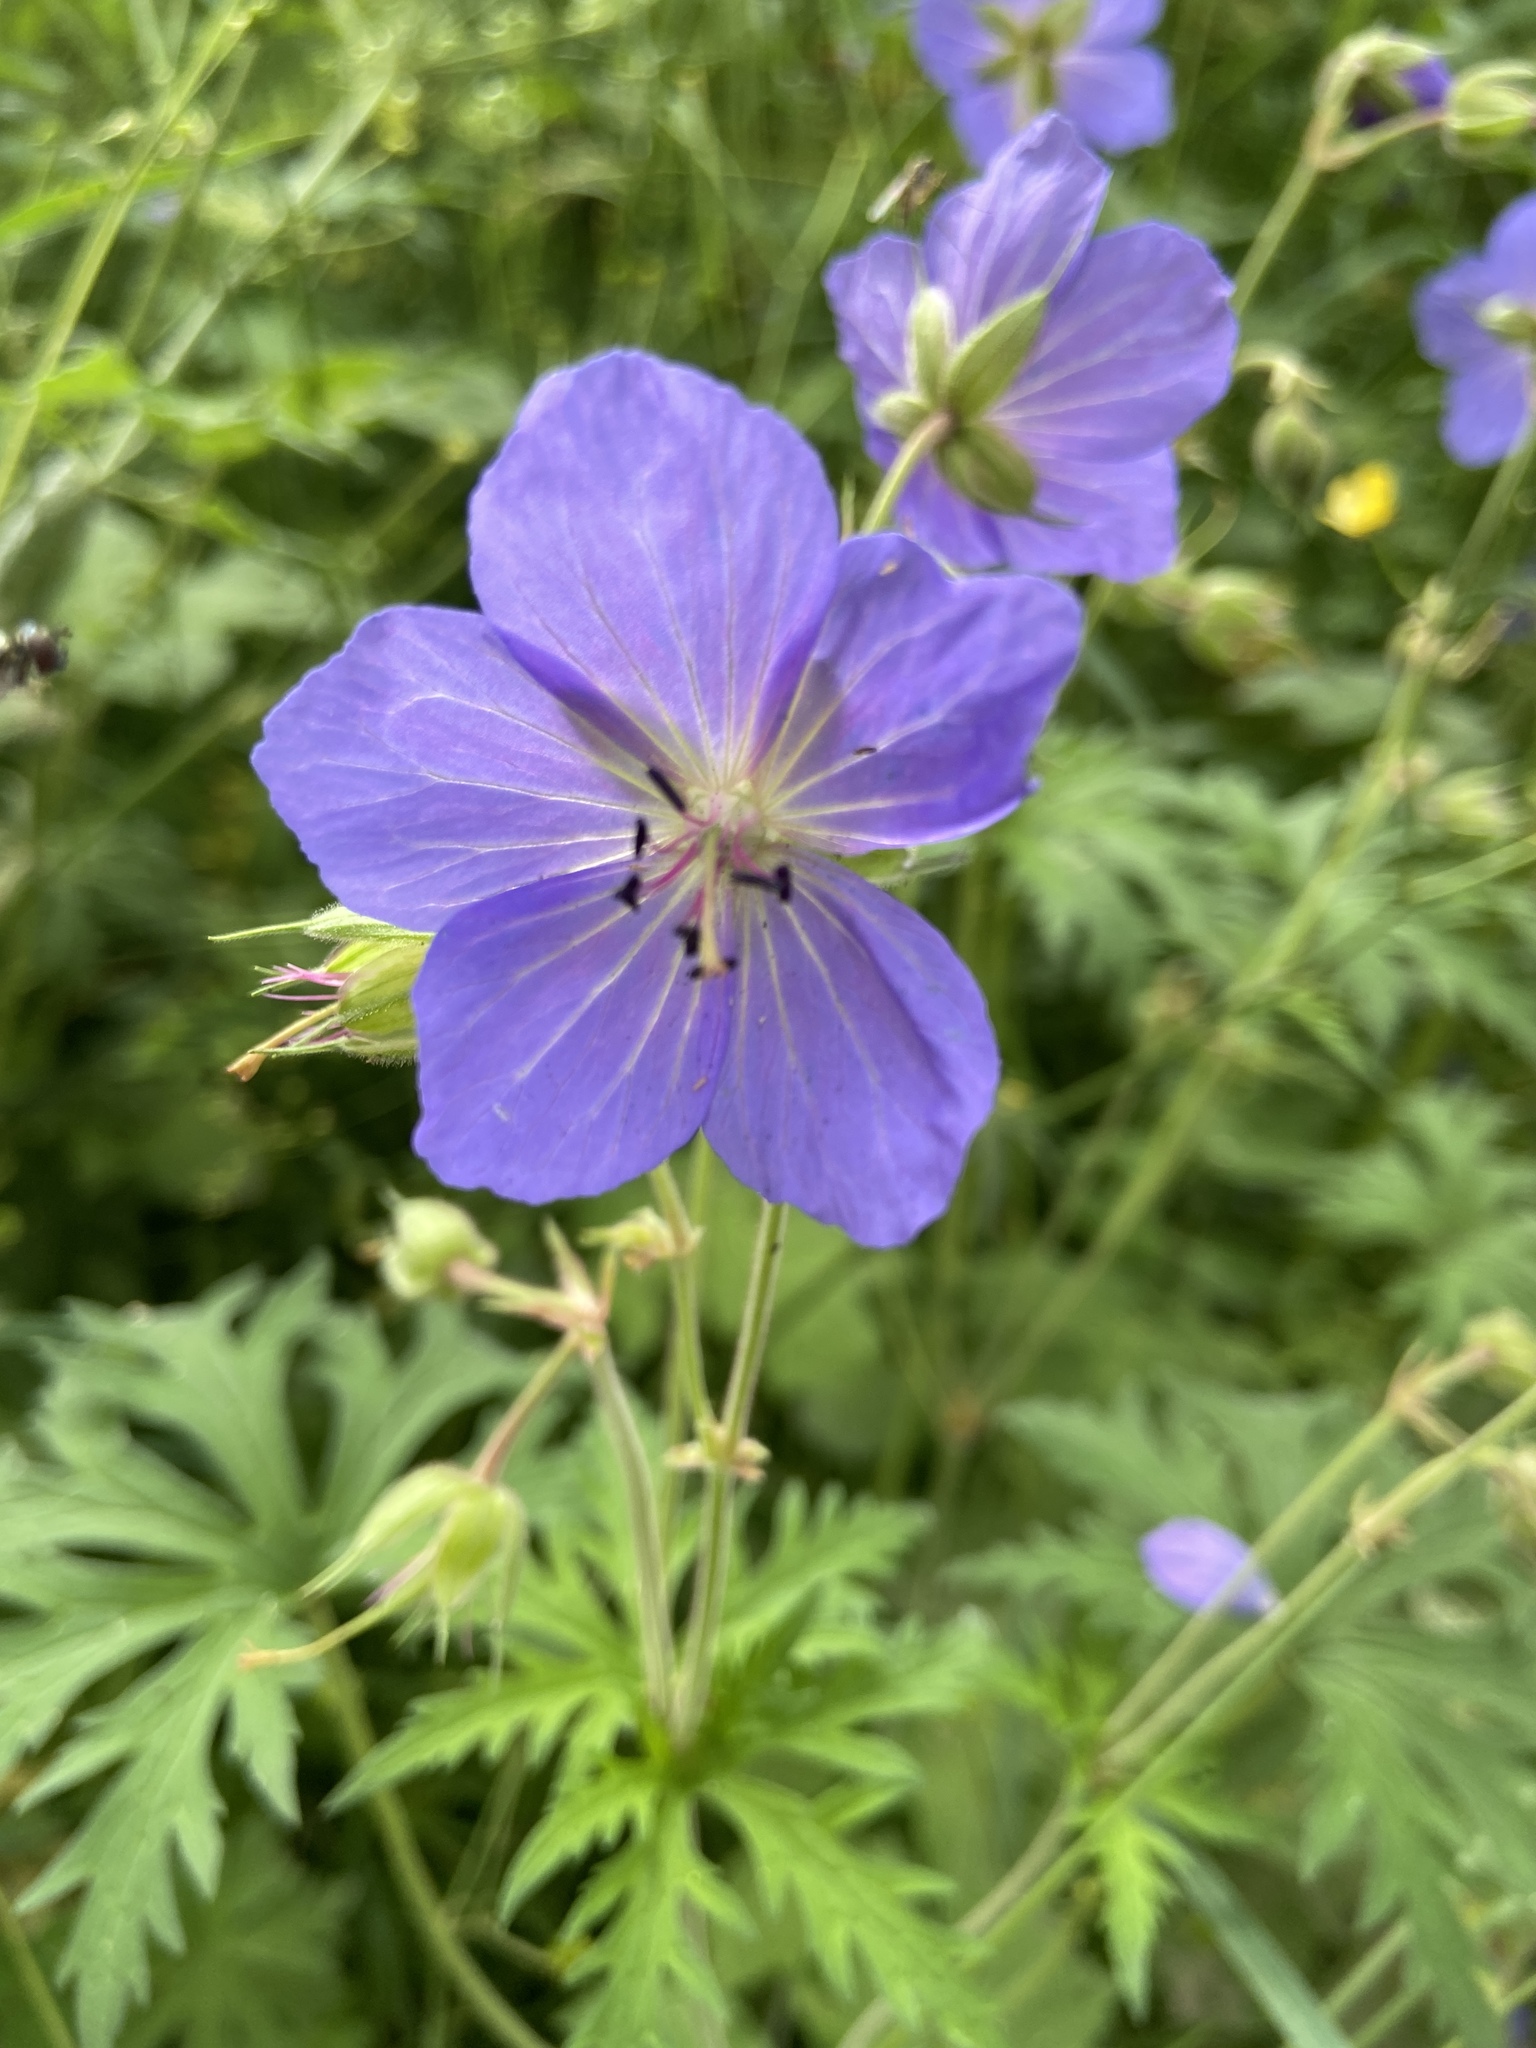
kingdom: Plantae
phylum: Tracheophyta
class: Magnoliopsida
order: Geraniales
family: Geraniaceae
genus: Geranium
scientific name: Geranium pratense
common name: Meadow crane's-bill
